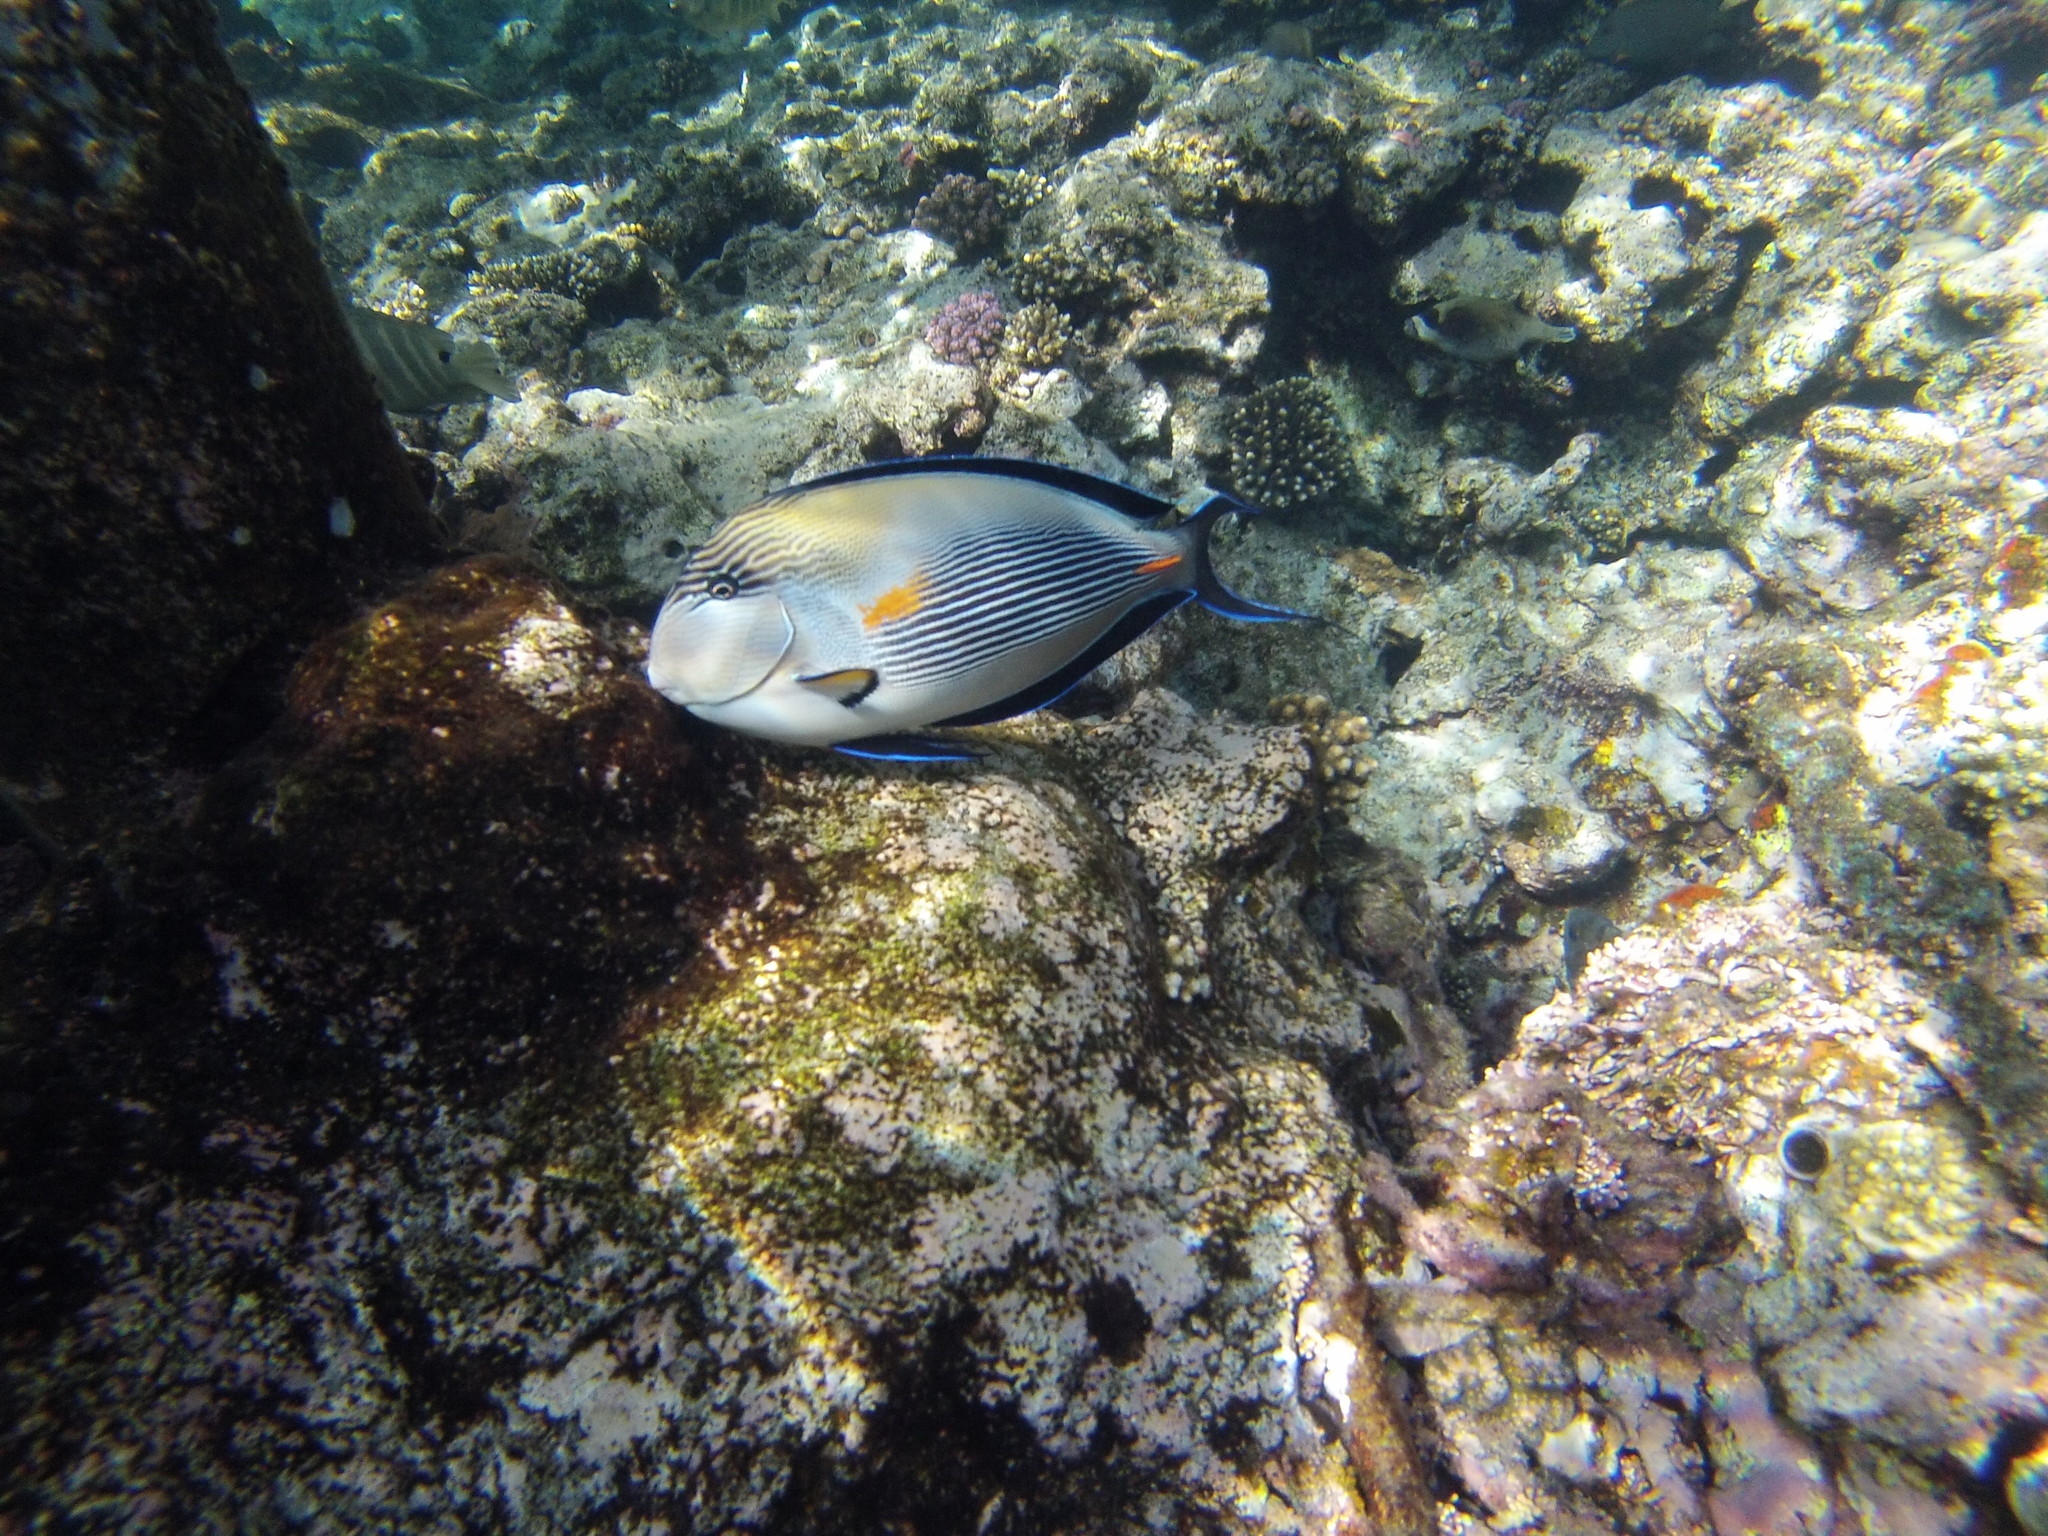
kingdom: Animalia
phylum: Chordata
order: Perciformes
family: Acanthuridae
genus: Acanthurus
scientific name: Acanthurus sohal
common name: Red sea surgeonfish
